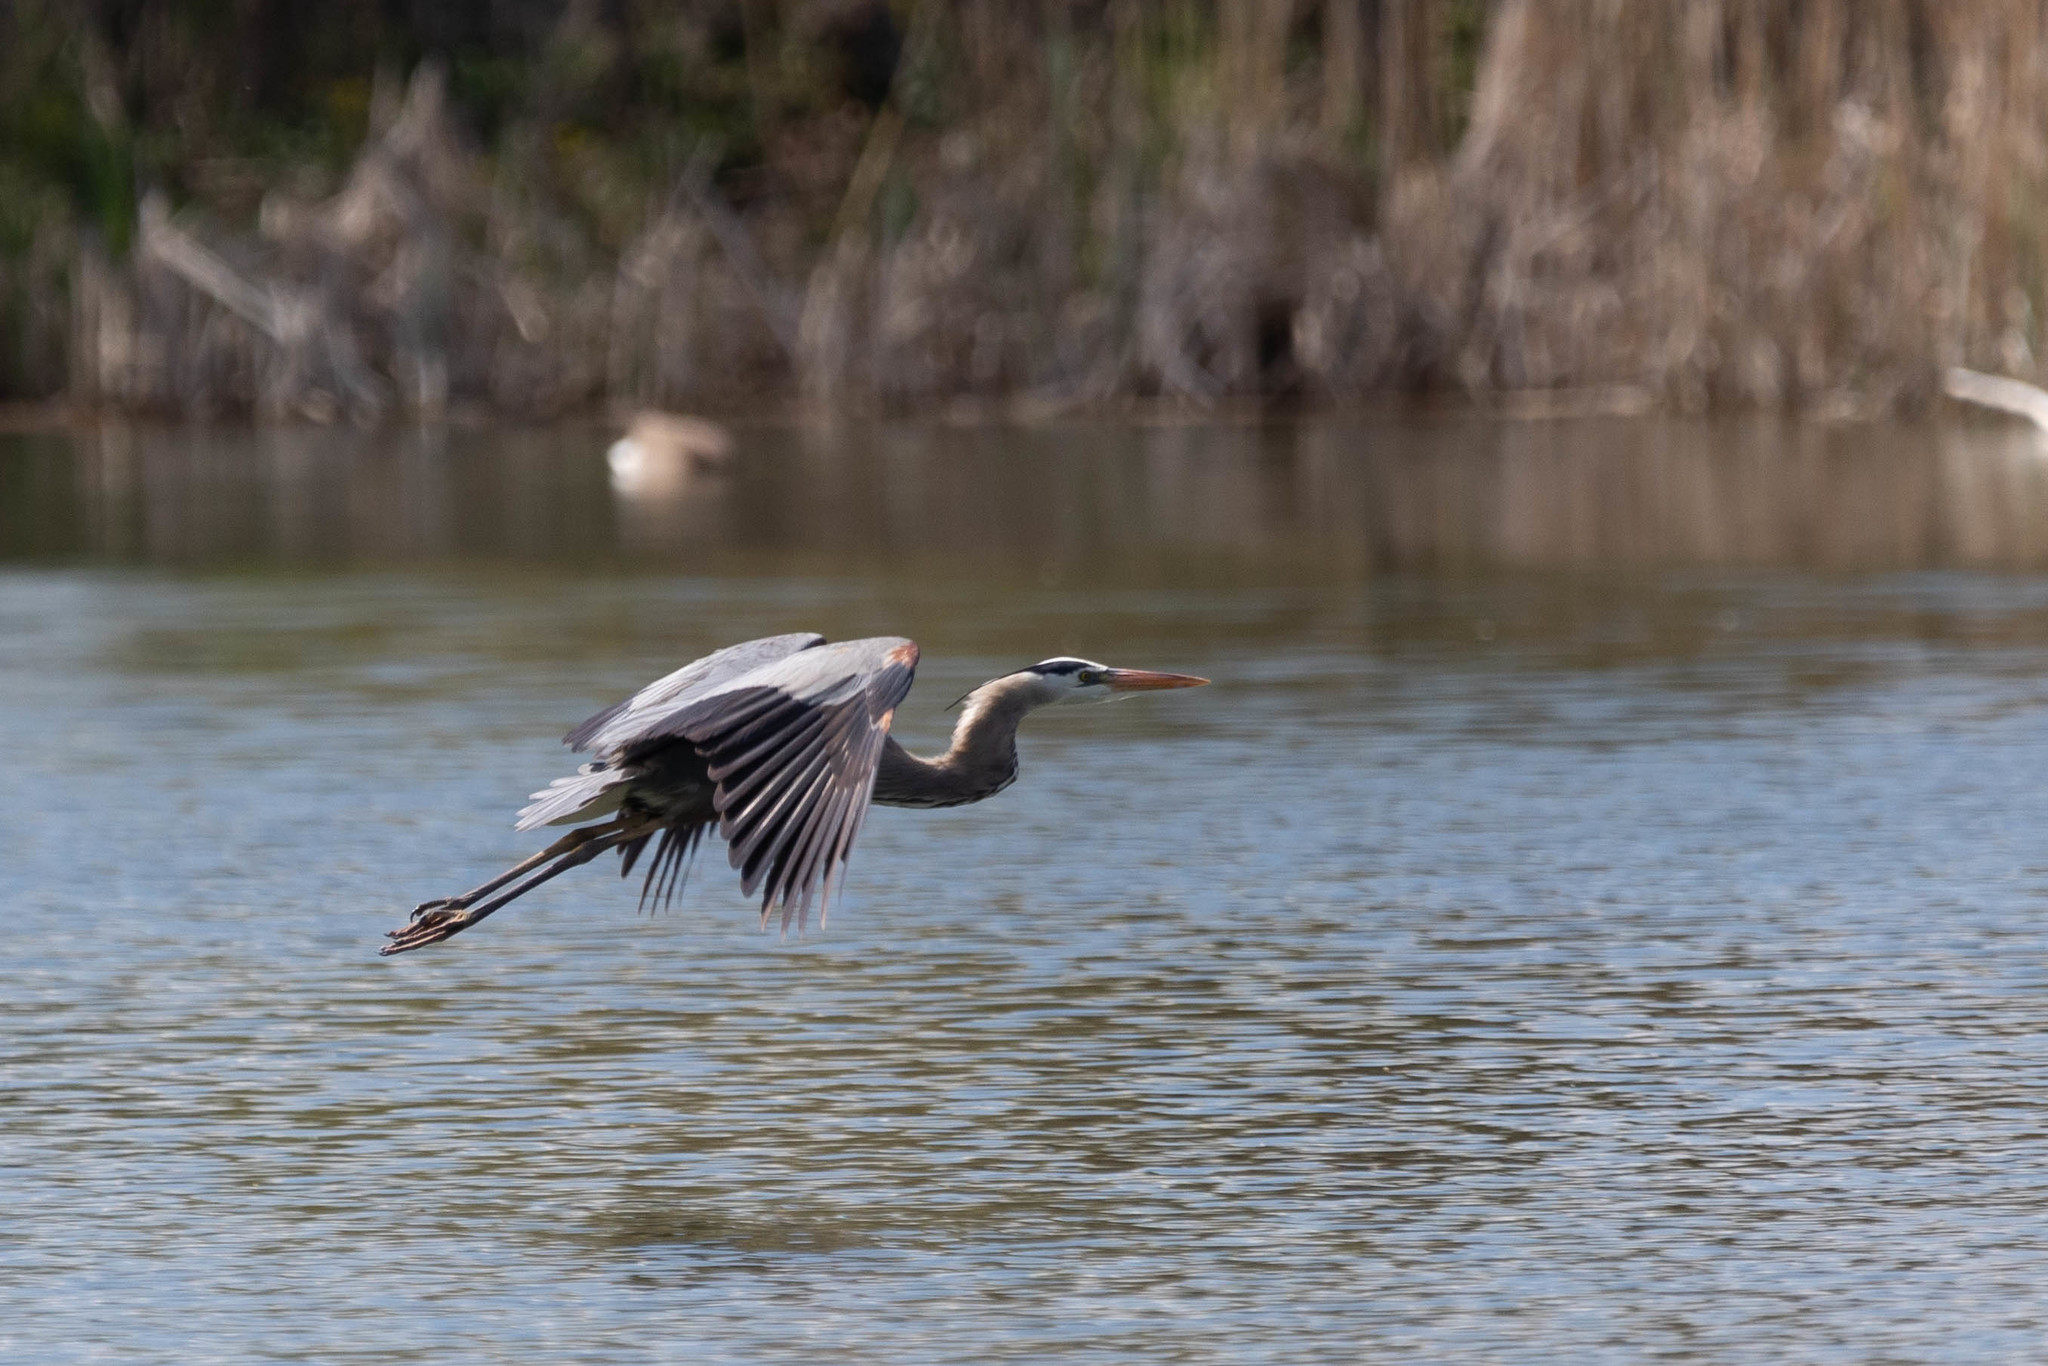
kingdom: Animalia
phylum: Chordata
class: Aves
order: Pelecaniformes
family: Ardeidae
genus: Ardea
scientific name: Ardea herodias
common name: Great blue heron
